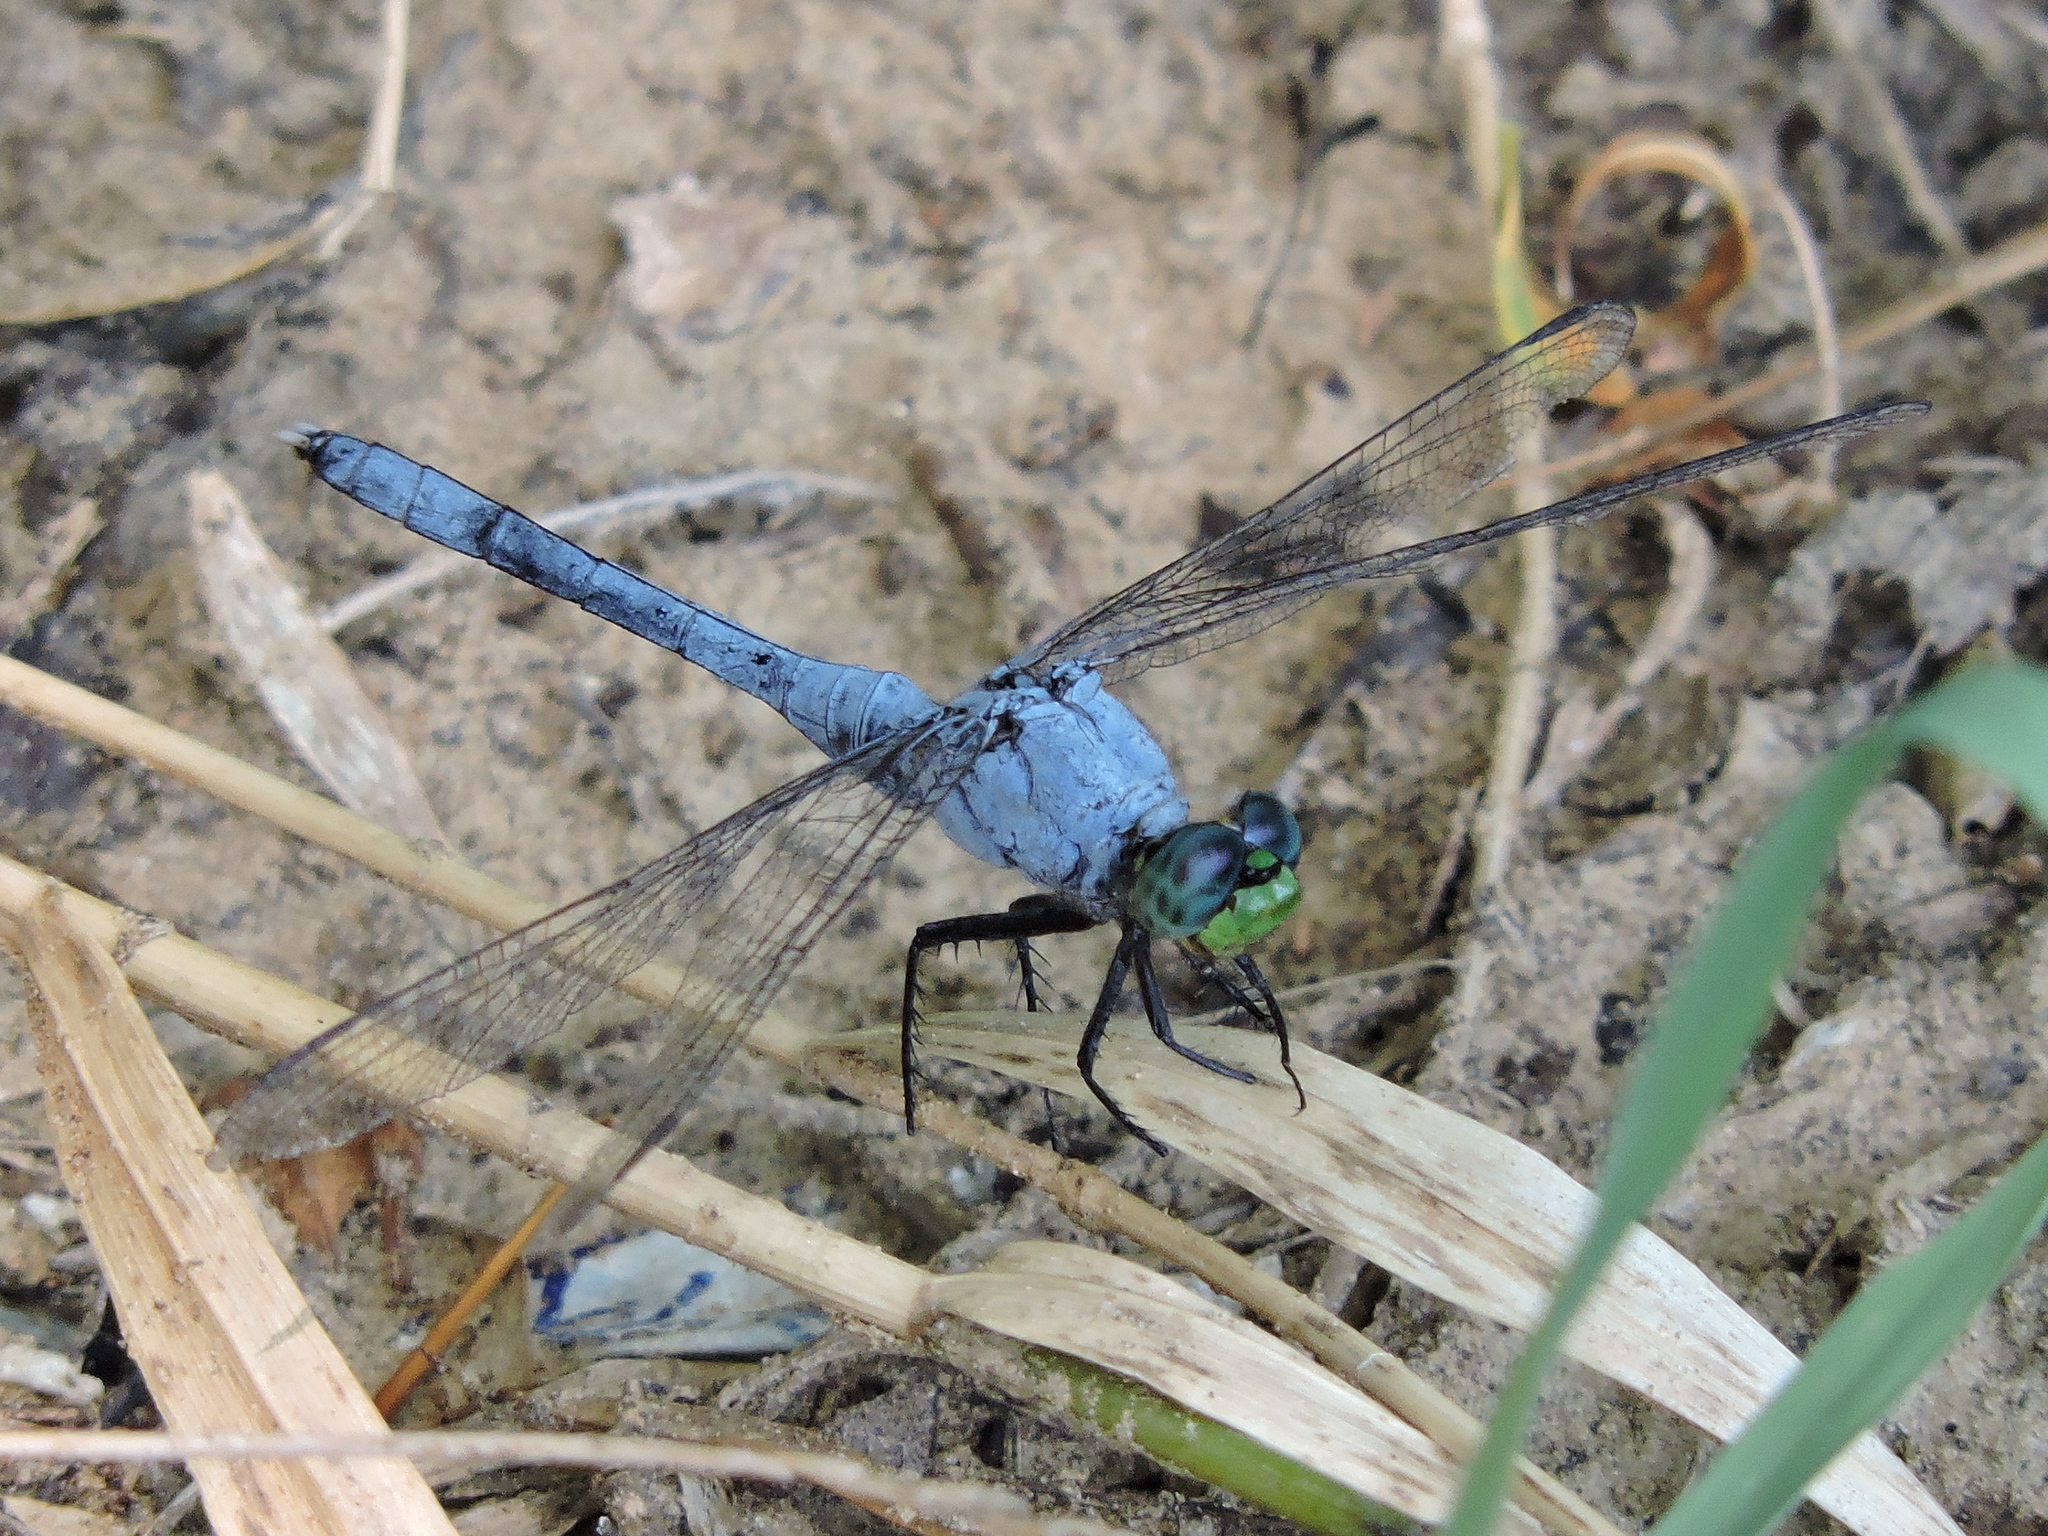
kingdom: Animalia
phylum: Arthropoda
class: Insecta
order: Odonata
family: Libellulidae
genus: Erythemis
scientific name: Erythemis simplicicollis
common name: Eastern pondhawk
